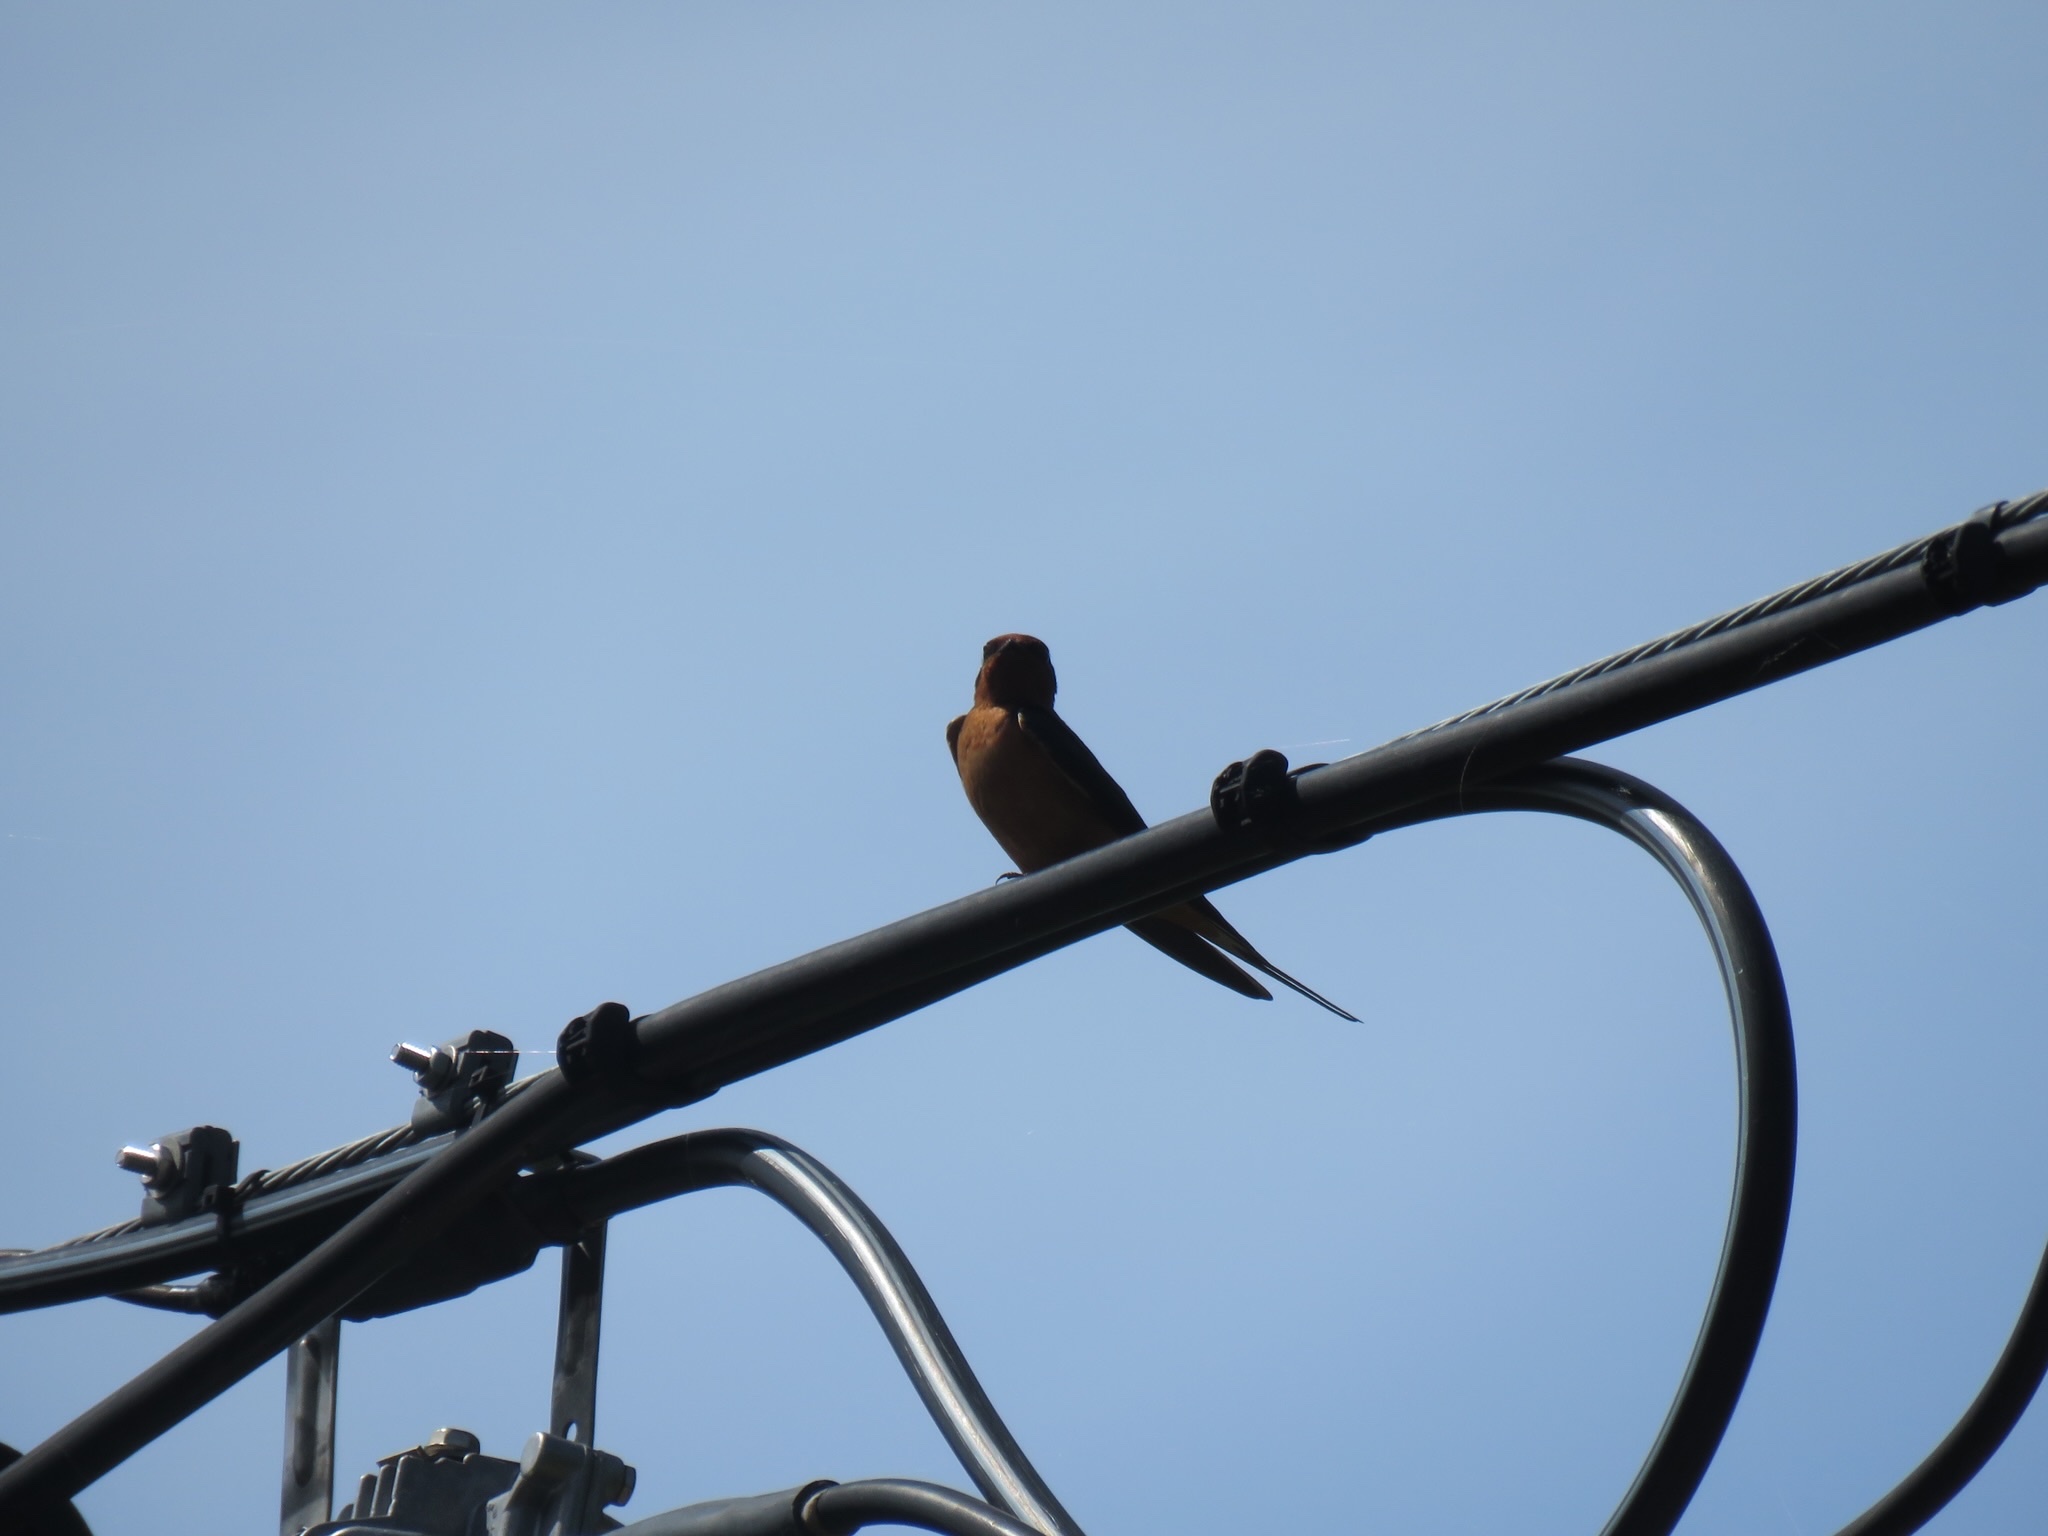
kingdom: Animalia
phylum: Chordata
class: Aves
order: Passeriformes
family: Hirundinidae
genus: Hirundo
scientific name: Hirundo rustica
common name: Barn swallow
